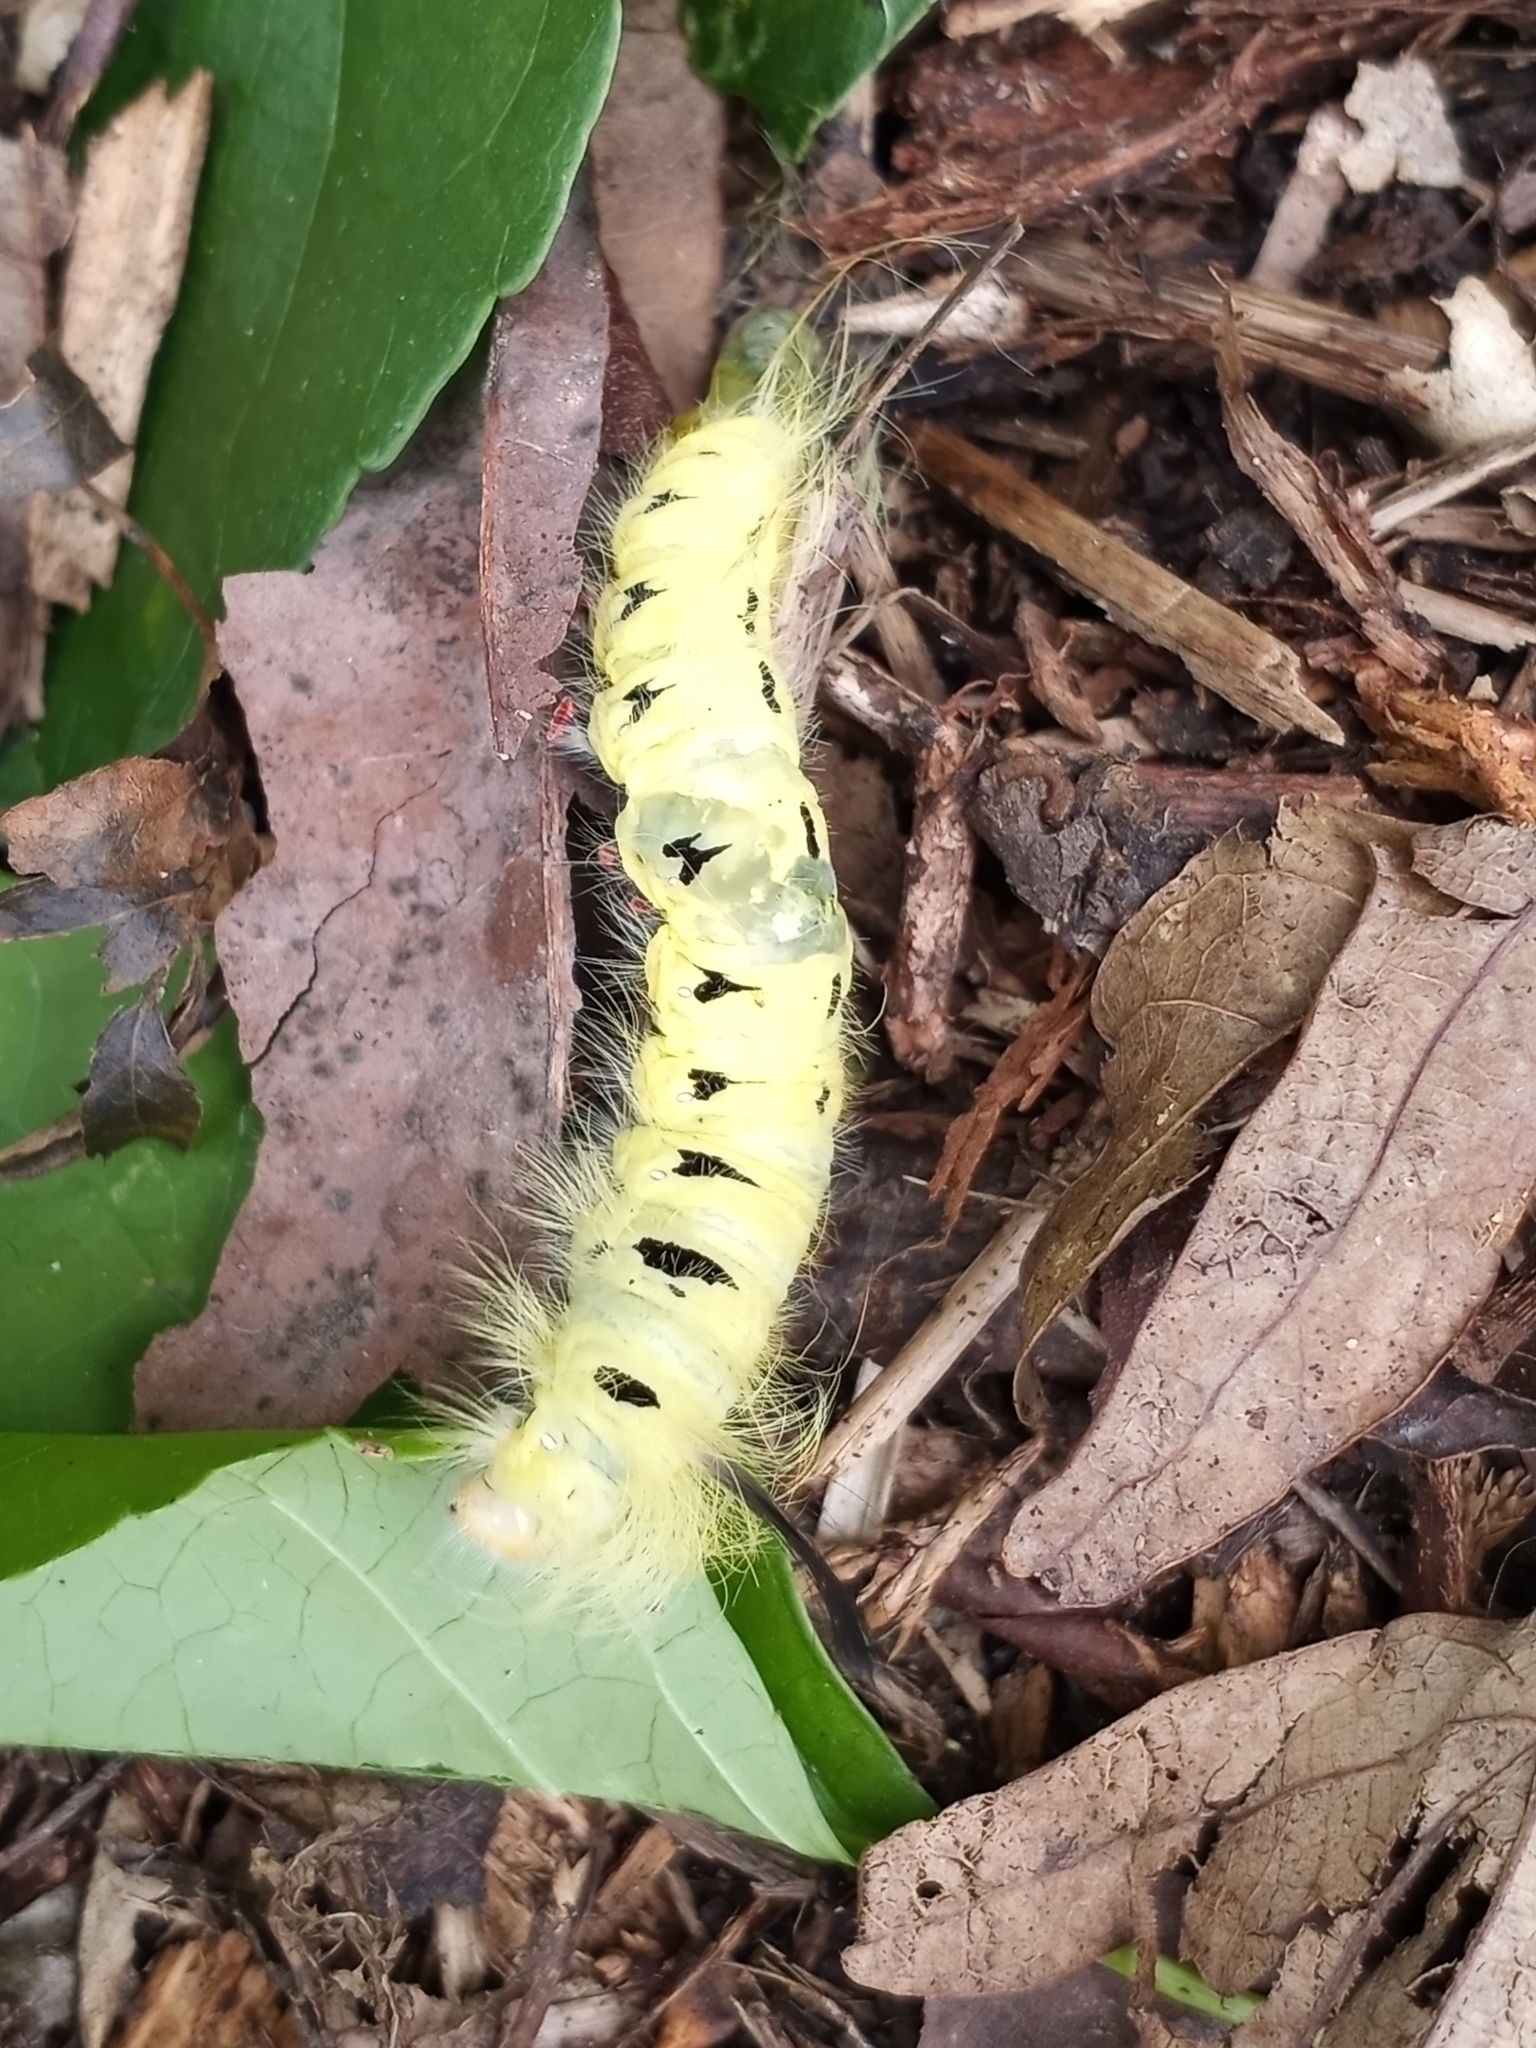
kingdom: Animalia
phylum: Arthropoda
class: Insecta
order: Lepidoptera
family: Apatelodidae
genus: Hygrochroa
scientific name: Hygrochroa Apatelodes torrefacta
